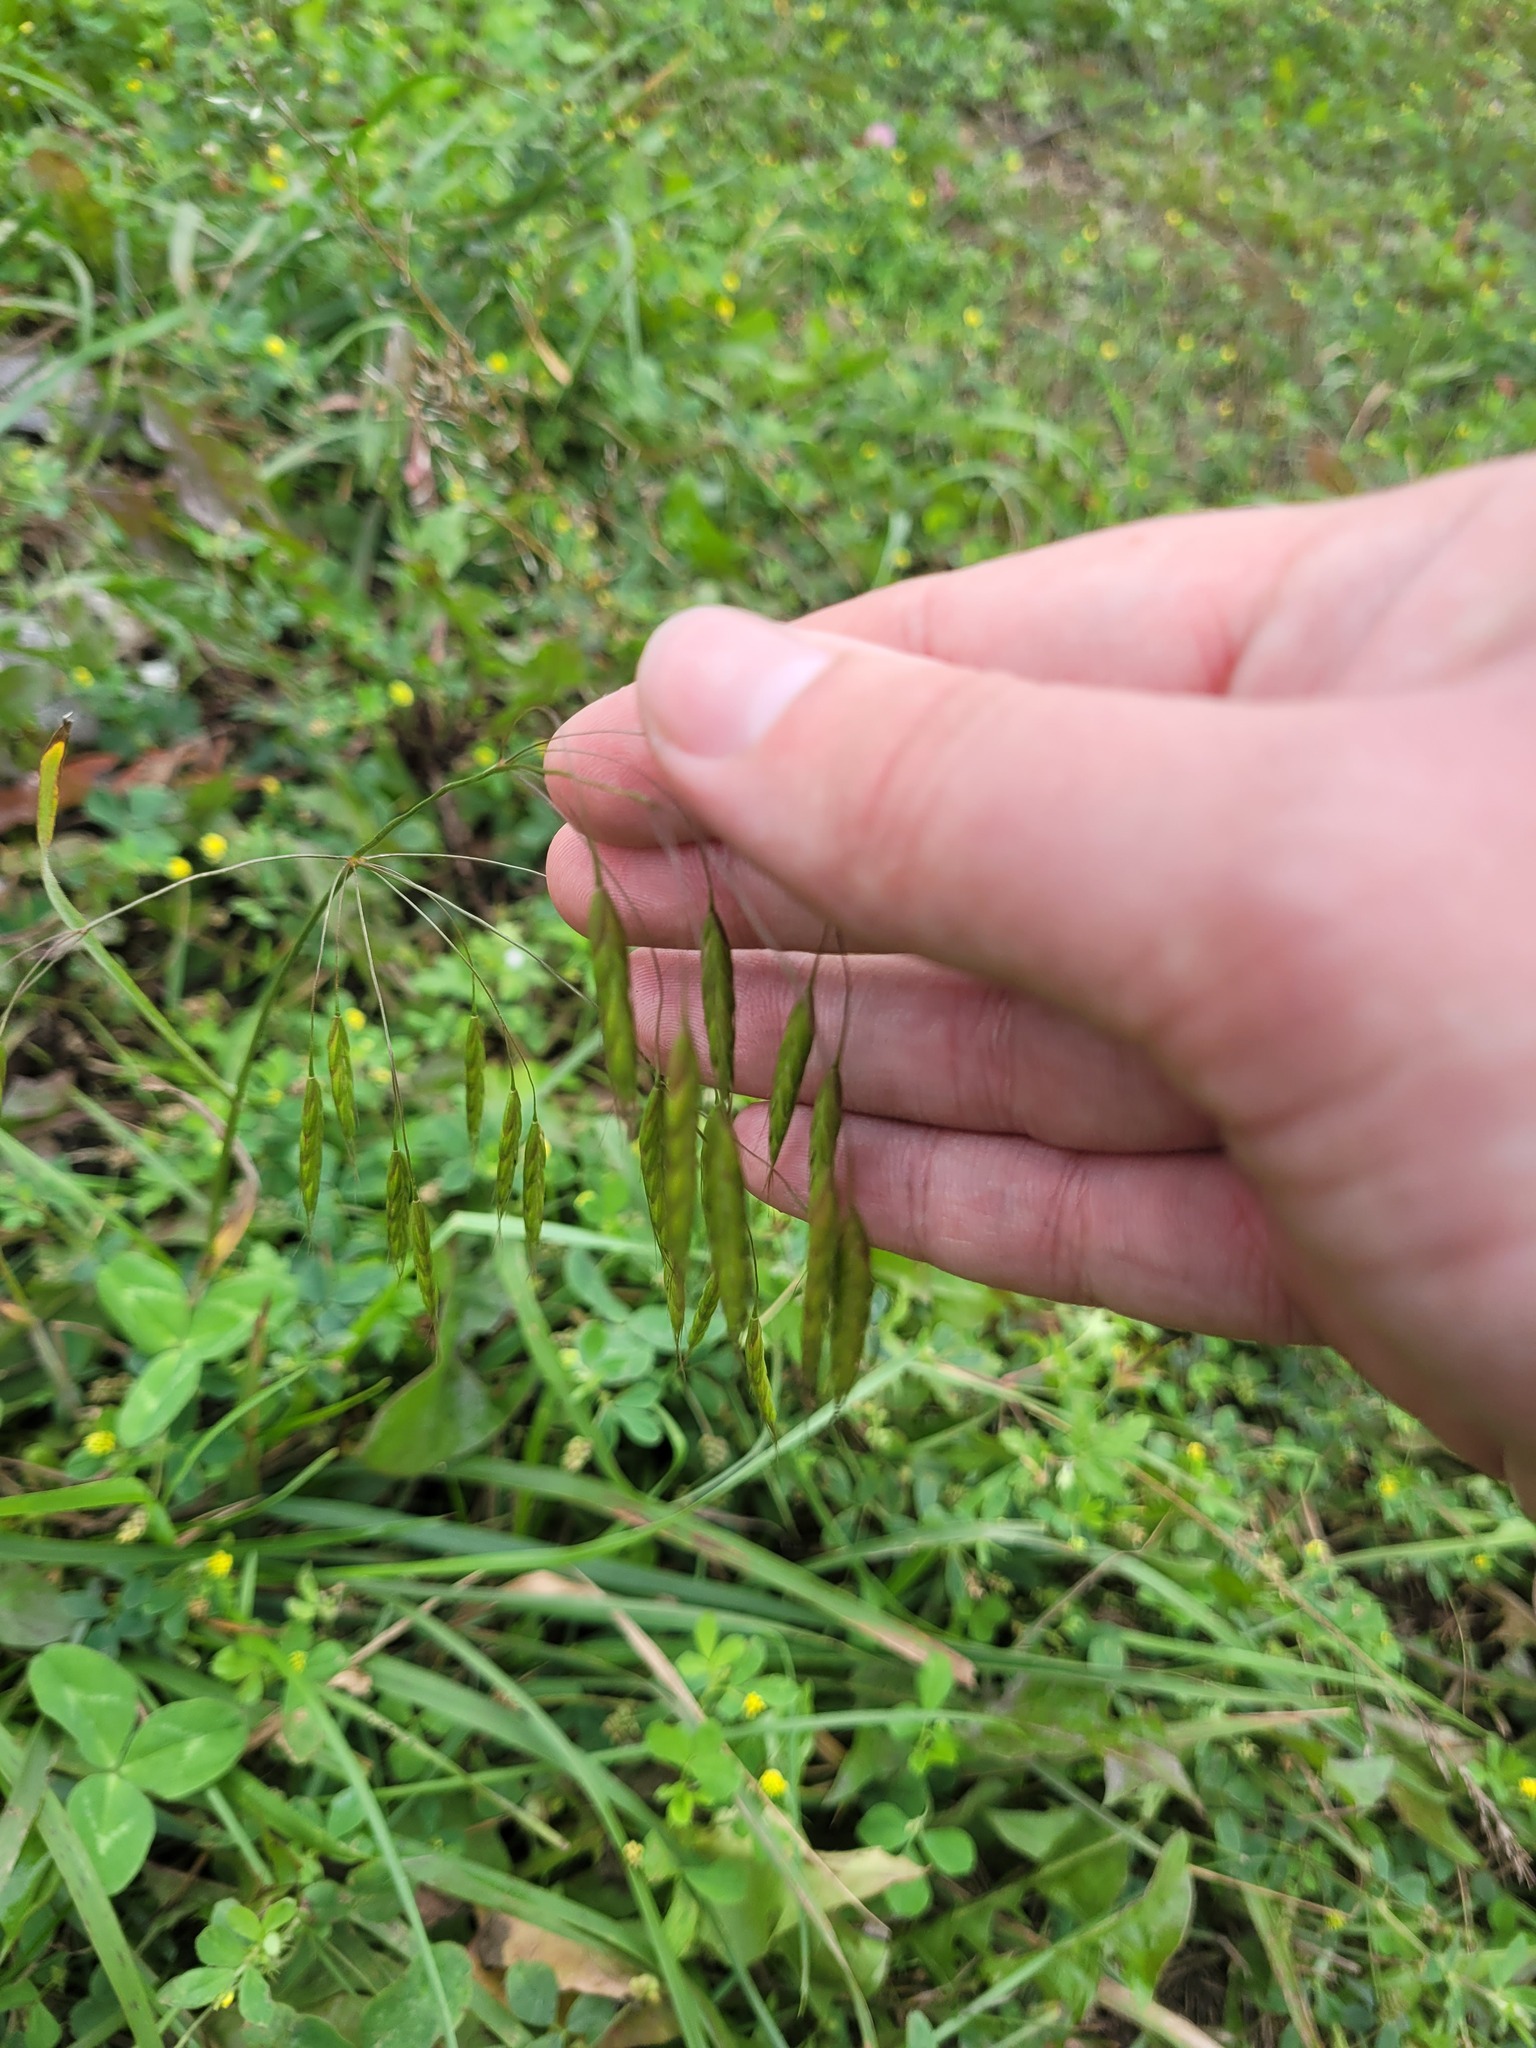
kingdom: Plantae
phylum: Tracheophyta
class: Liliopsida
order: Poales
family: Poaceae
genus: Bromus
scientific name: Bromus squarrosus
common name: Corn brome
